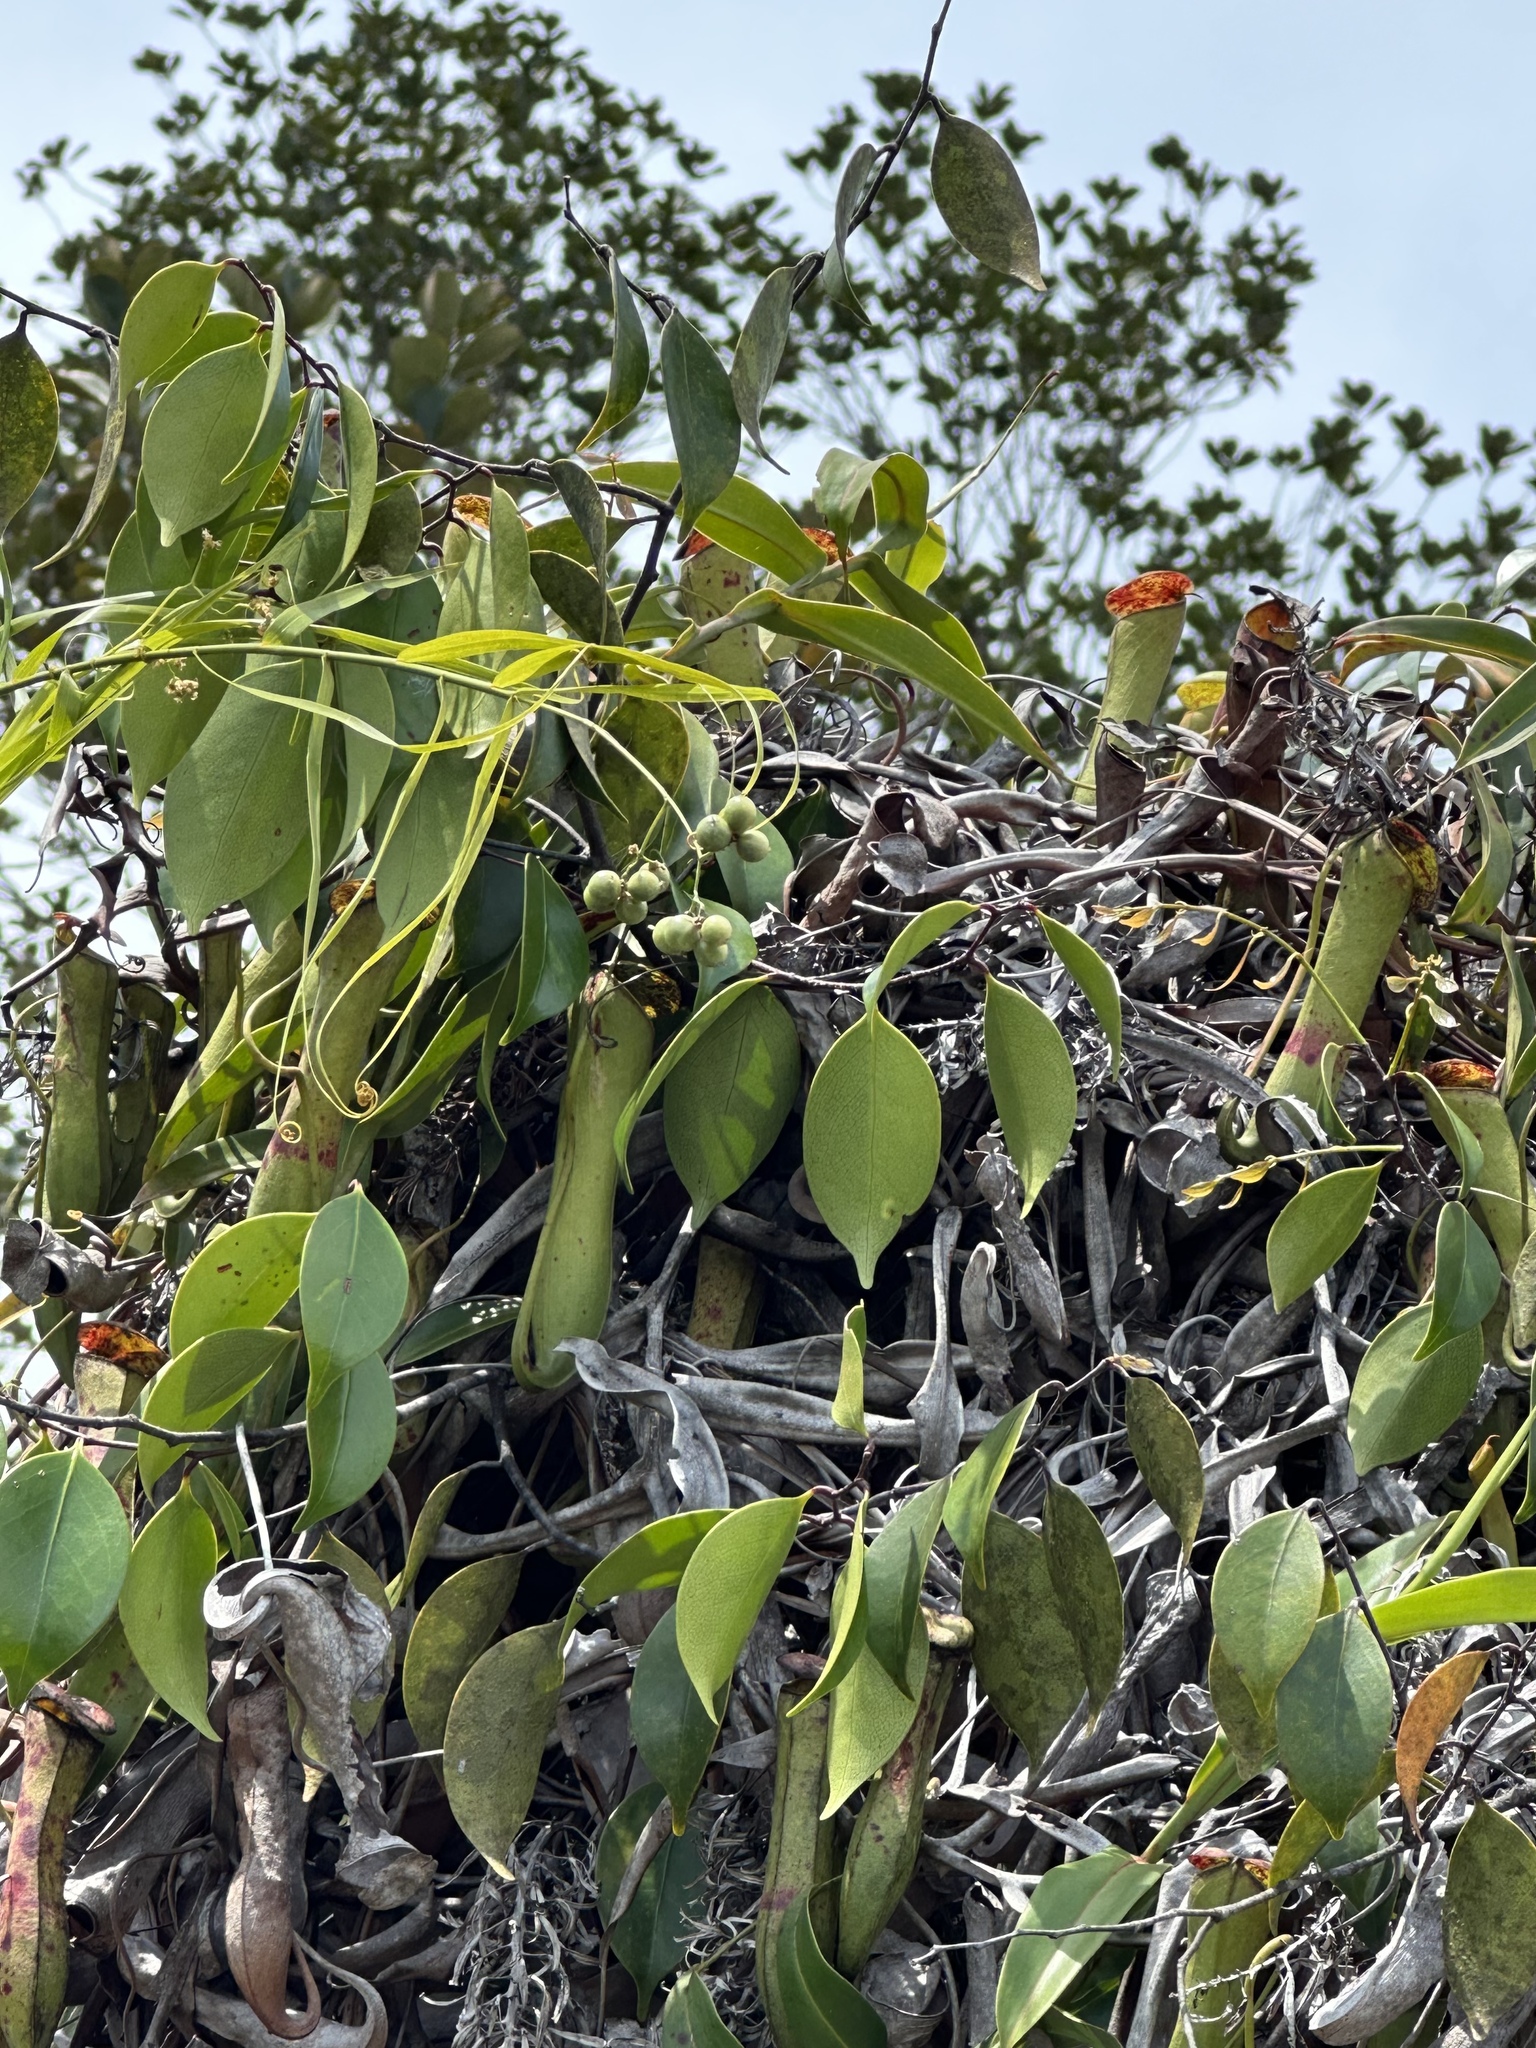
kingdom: Plantae
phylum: Tracheophyta
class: Magnoliopsida
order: Caryophyllales
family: Nepenthaceae
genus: Nepenthes
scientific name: Nepenthes gracilis
